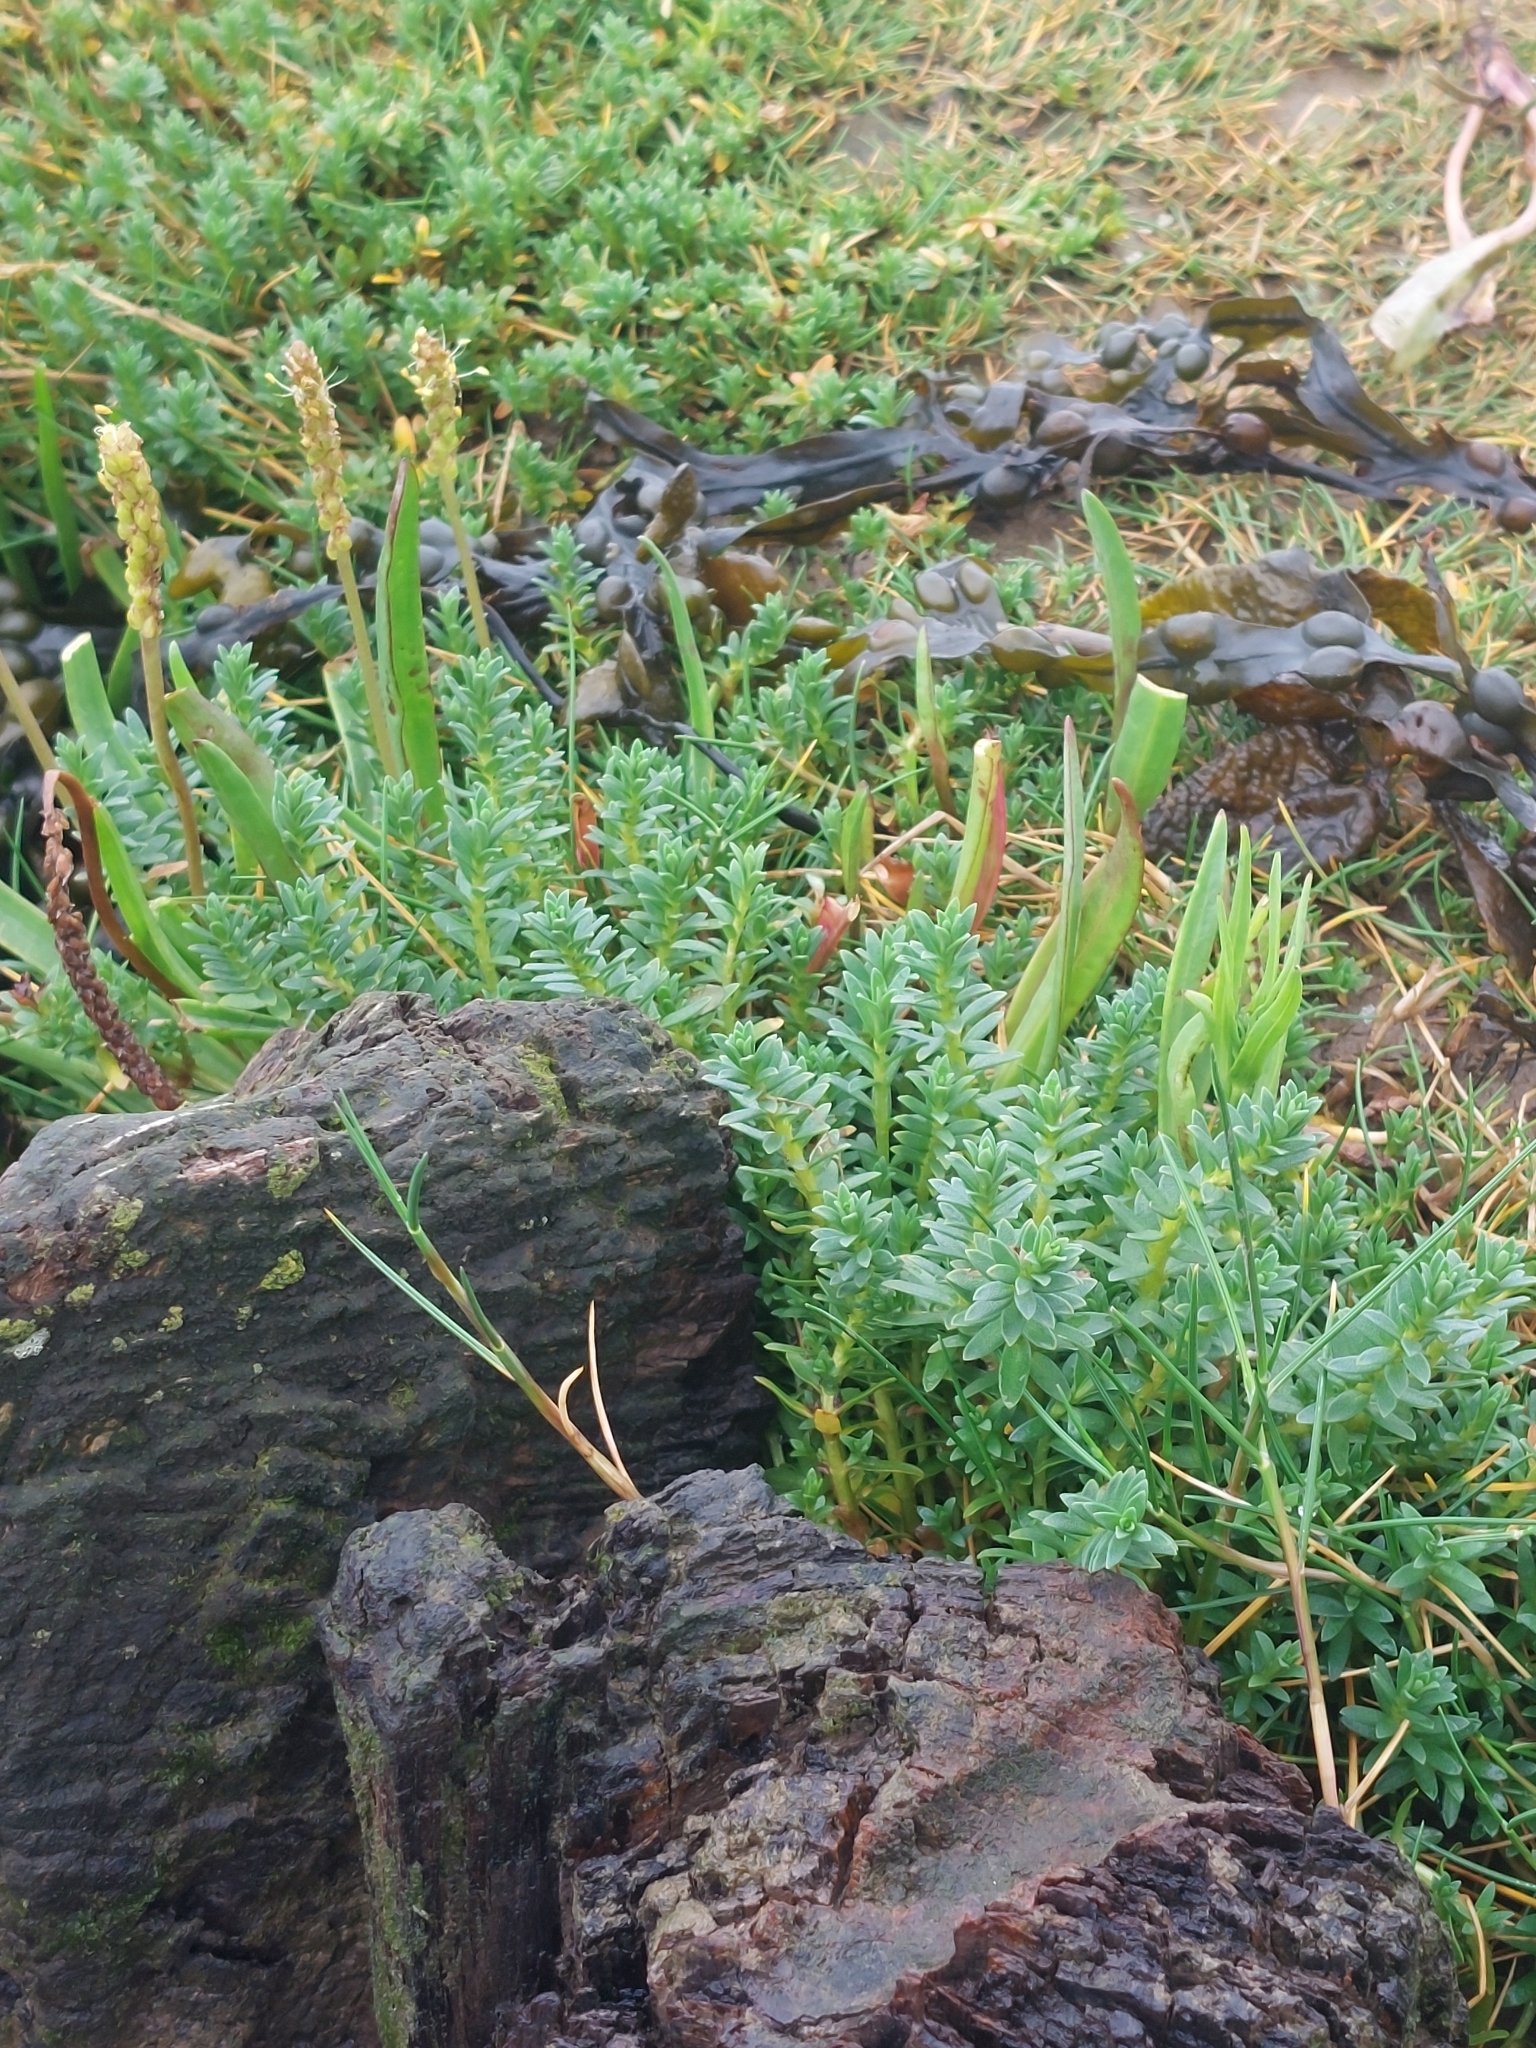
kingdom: Plantae
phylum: Tracheophyta
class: Magnoliopsida
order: Ericales
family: Primulaceae
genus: Lysimachia
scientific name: Lysimachia maritima
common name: Sea milkwort
